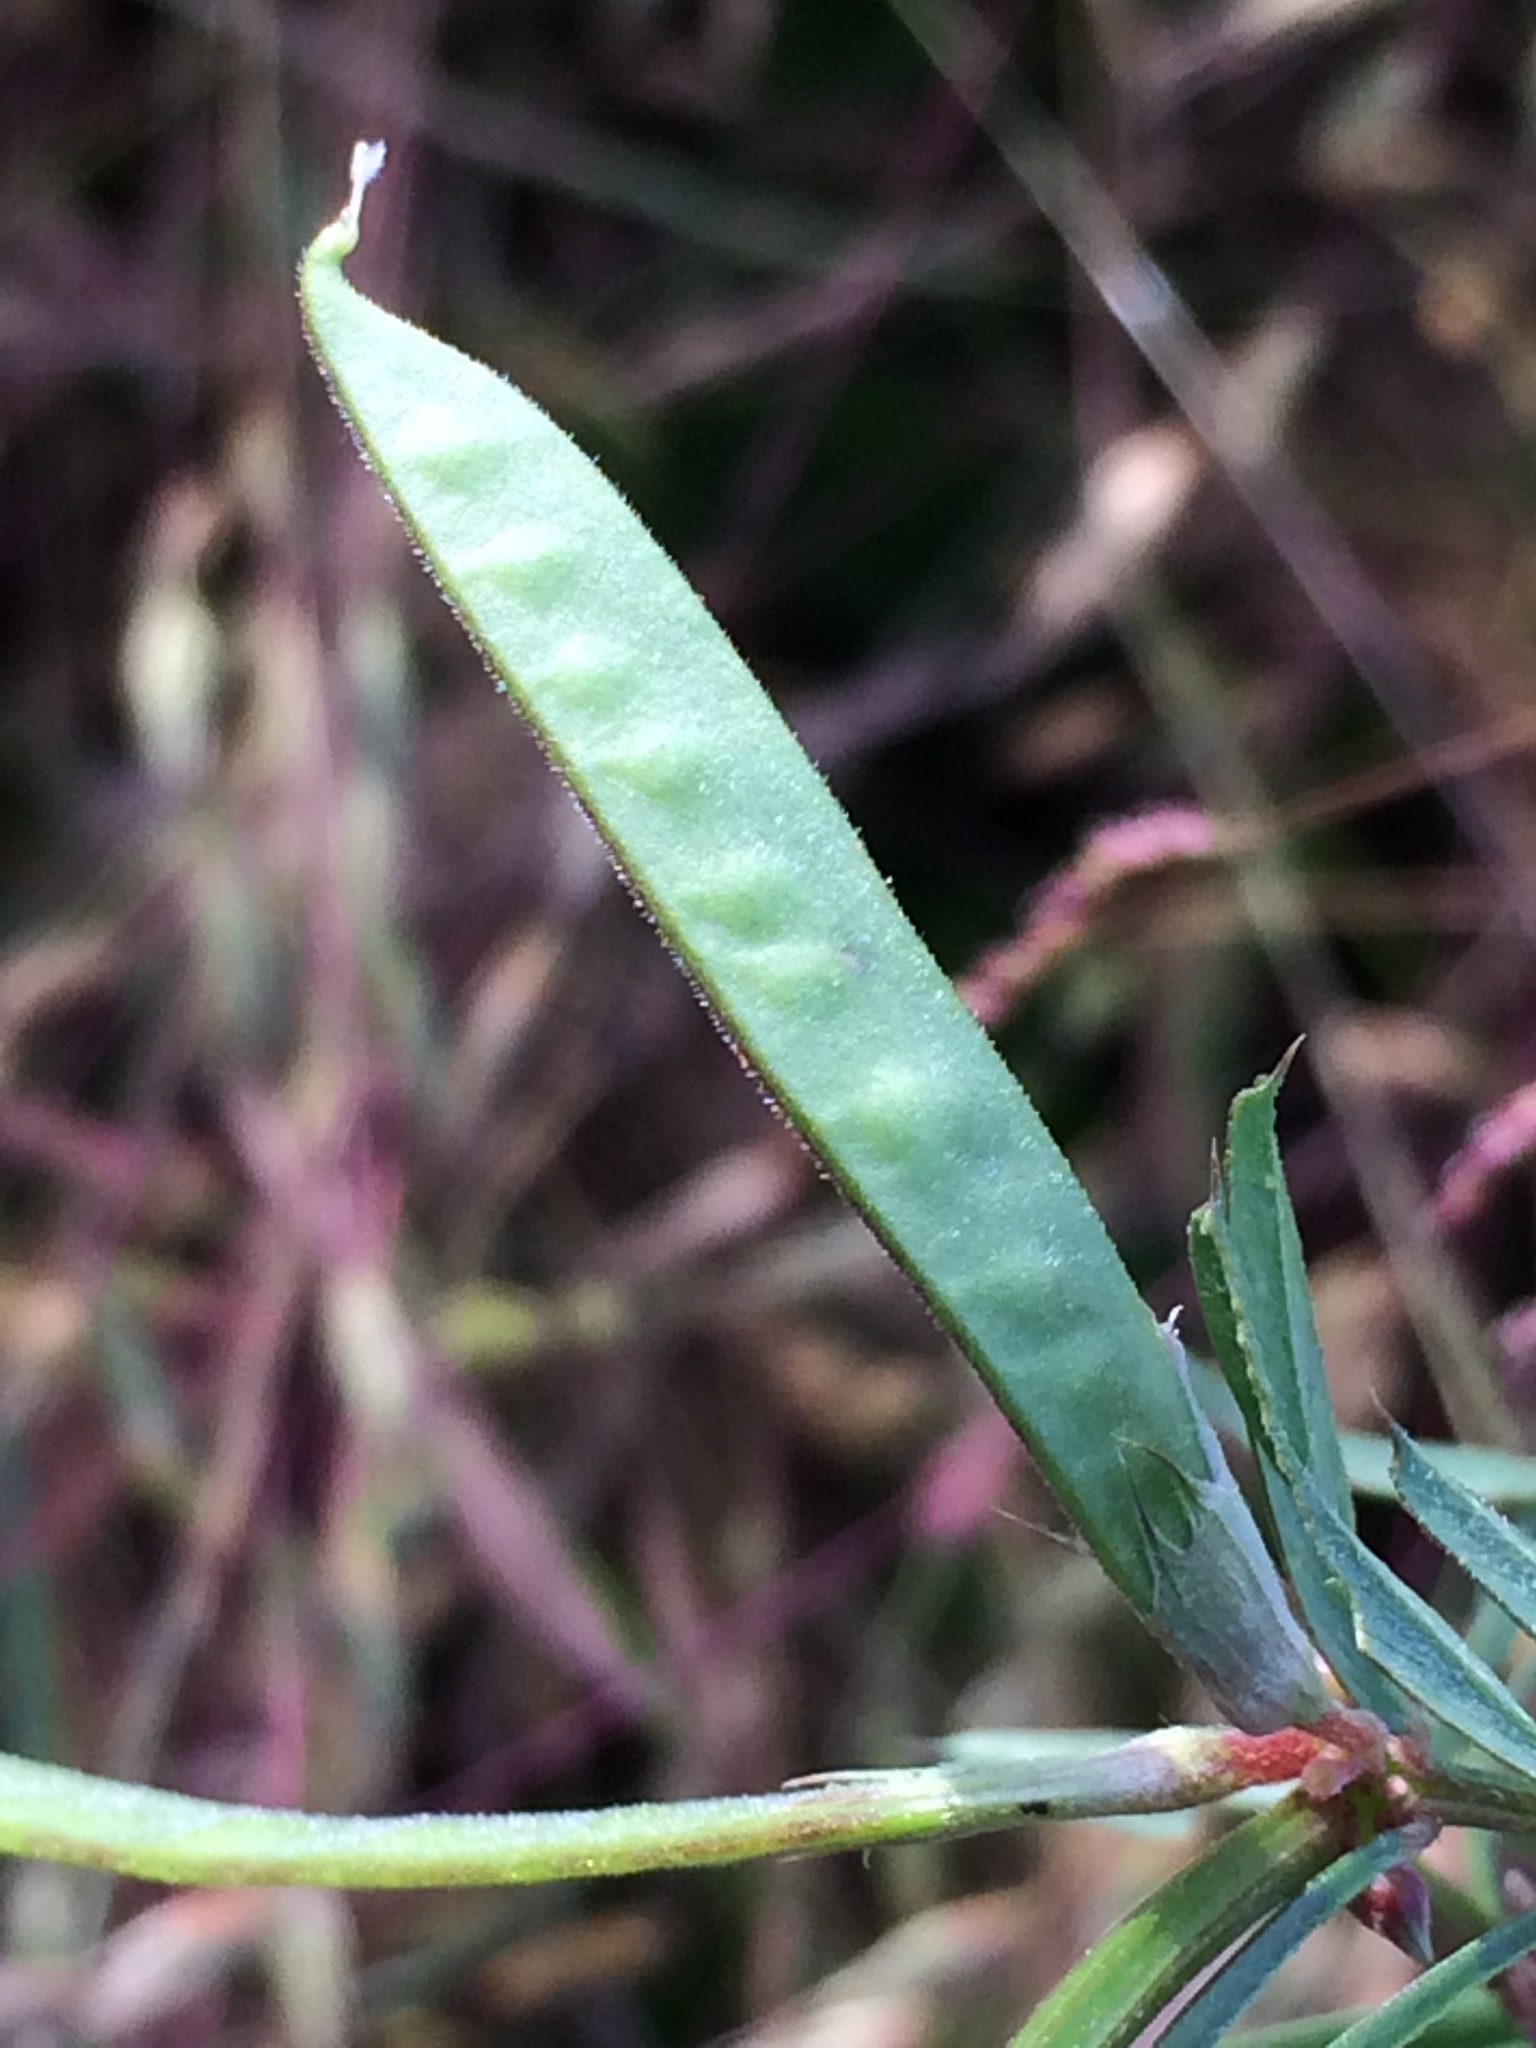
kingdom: Plantae
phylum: Tracheophyta
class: Magnoliopsida
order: Fabales
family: Fabaceae
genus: Vicia
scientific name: Vicia sativa
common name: Garden vetch
